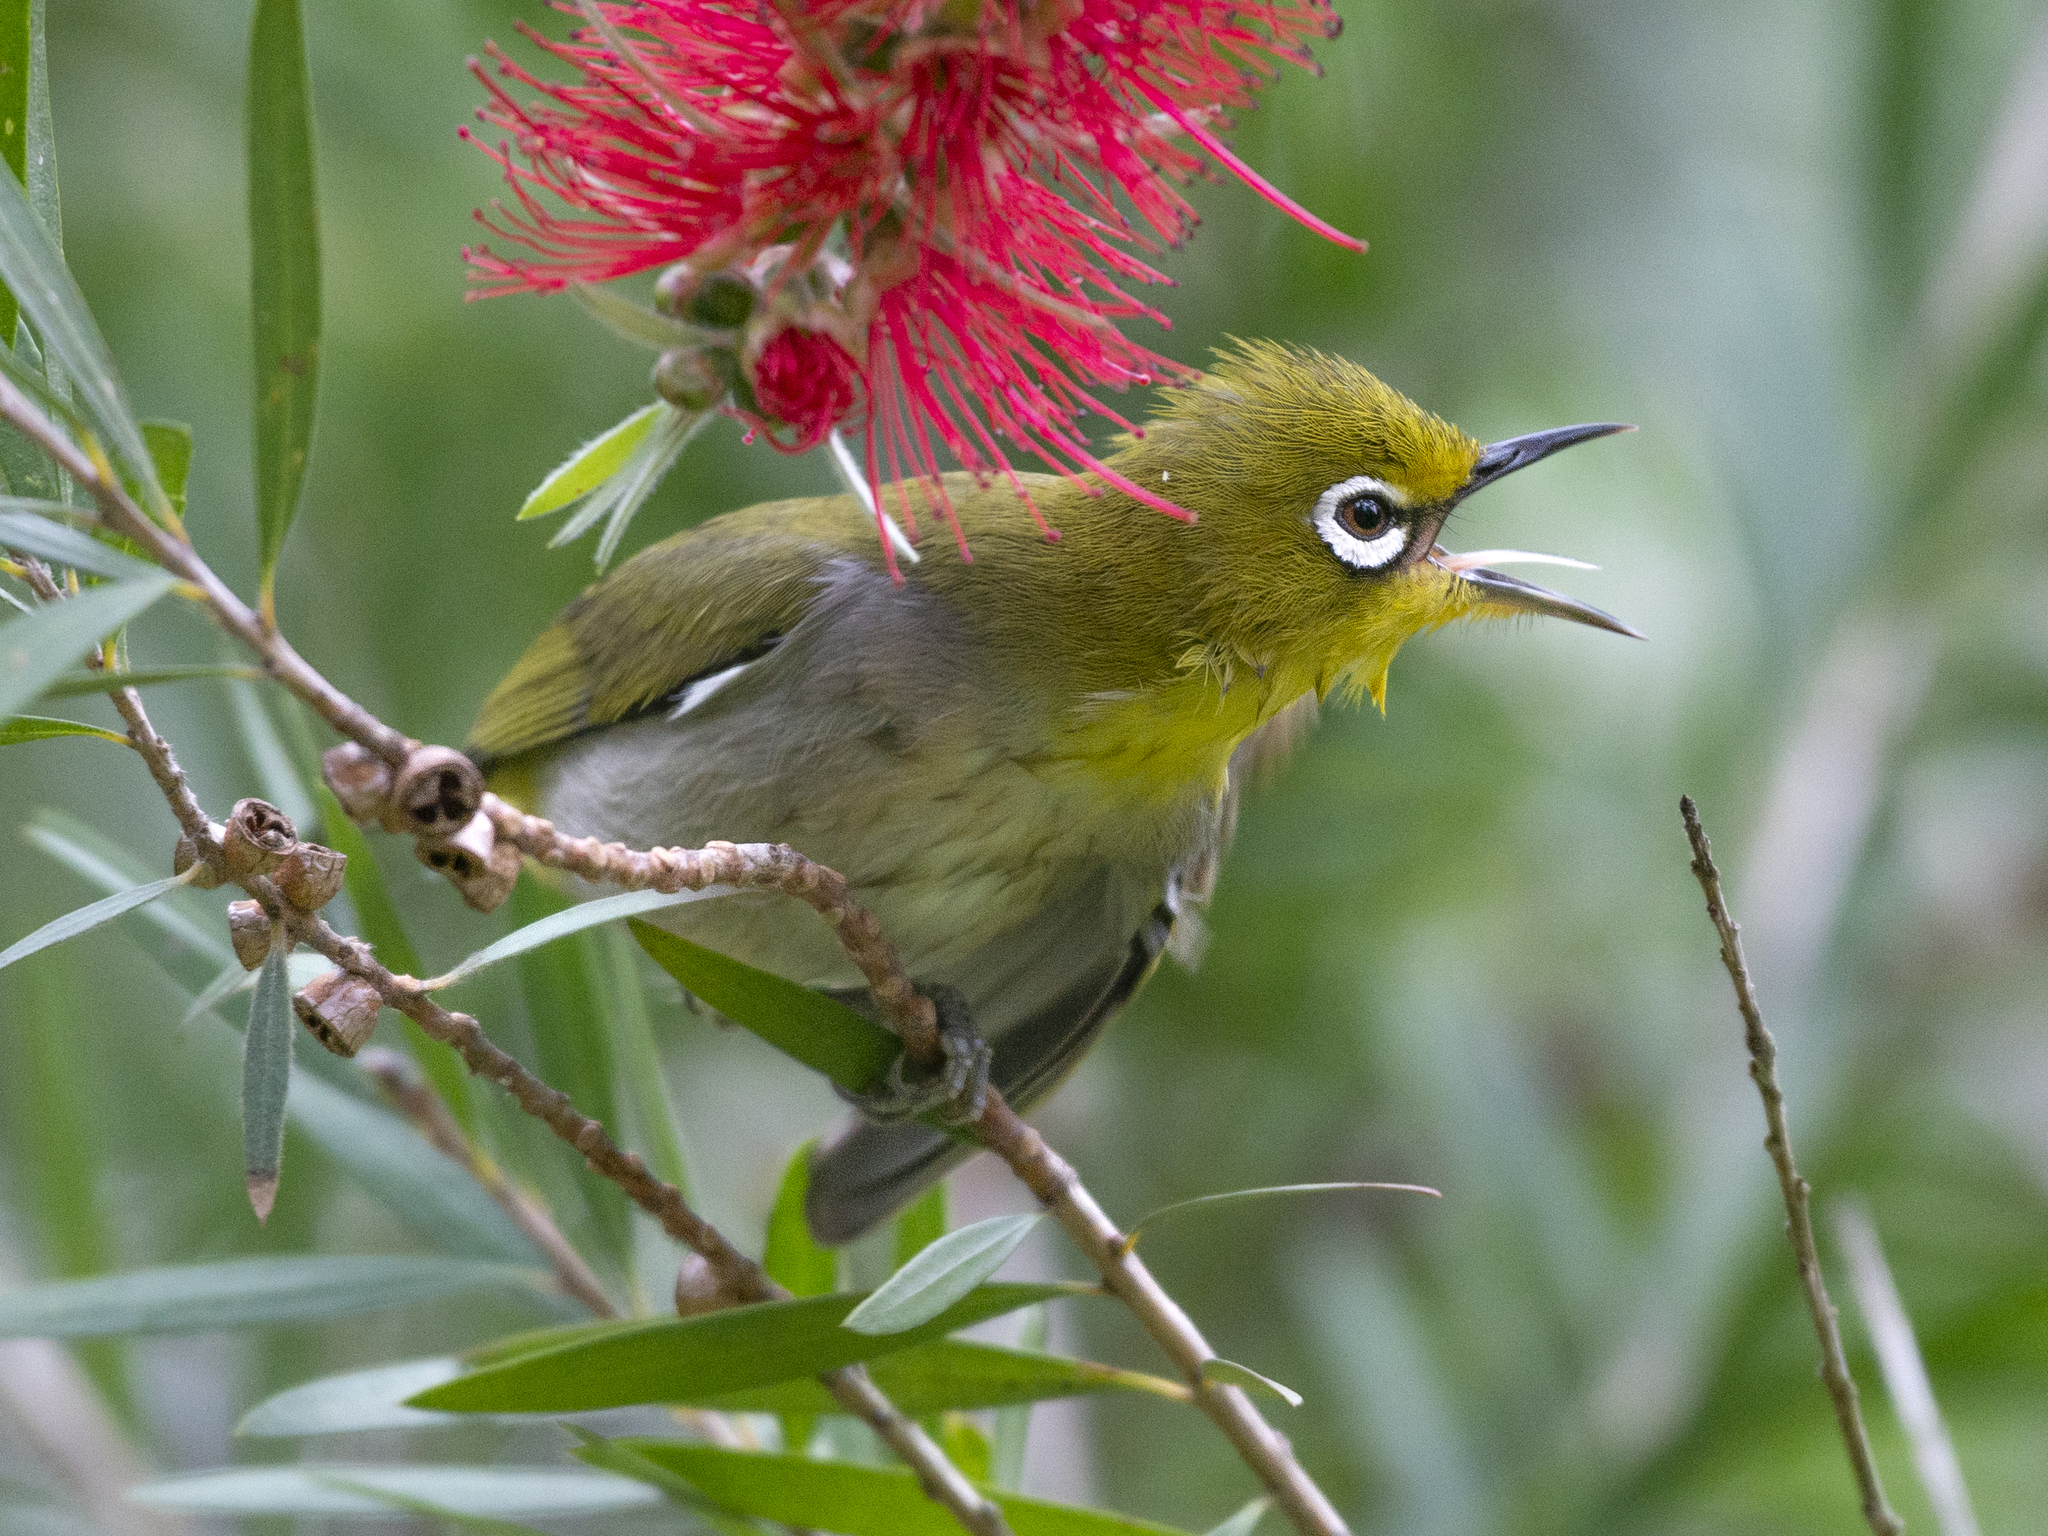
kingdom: Animalia
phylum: Chordata
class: Aves
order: Passeriformes
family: Zosteropidae
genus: Zosterops
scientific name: Zosterops simplex
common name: Swinhoe's white-eye
